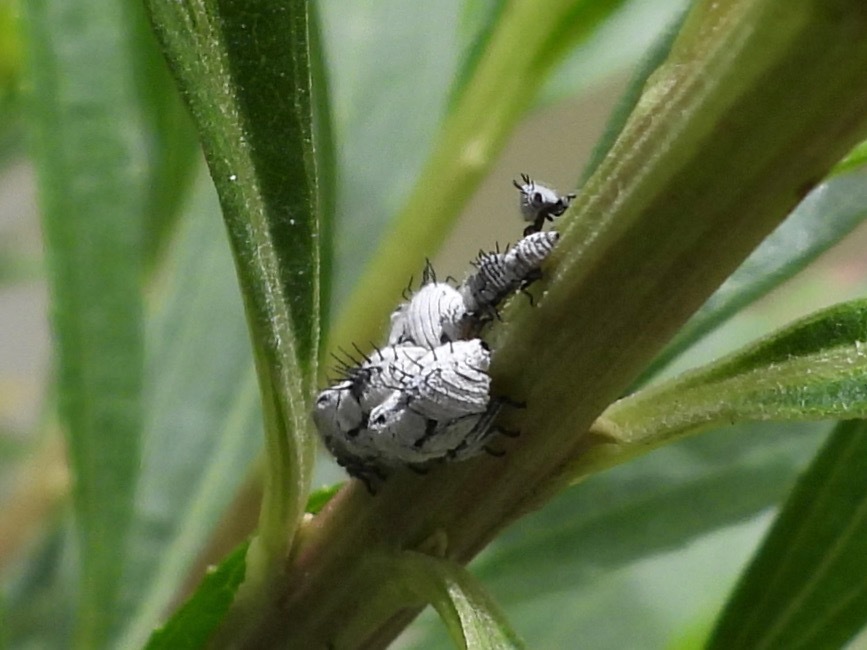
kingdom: Animalia
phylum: Arthropoda
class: Insecta
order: Hemiptera
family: Membracidae
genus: Membracis
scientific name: Membracis mexicana
